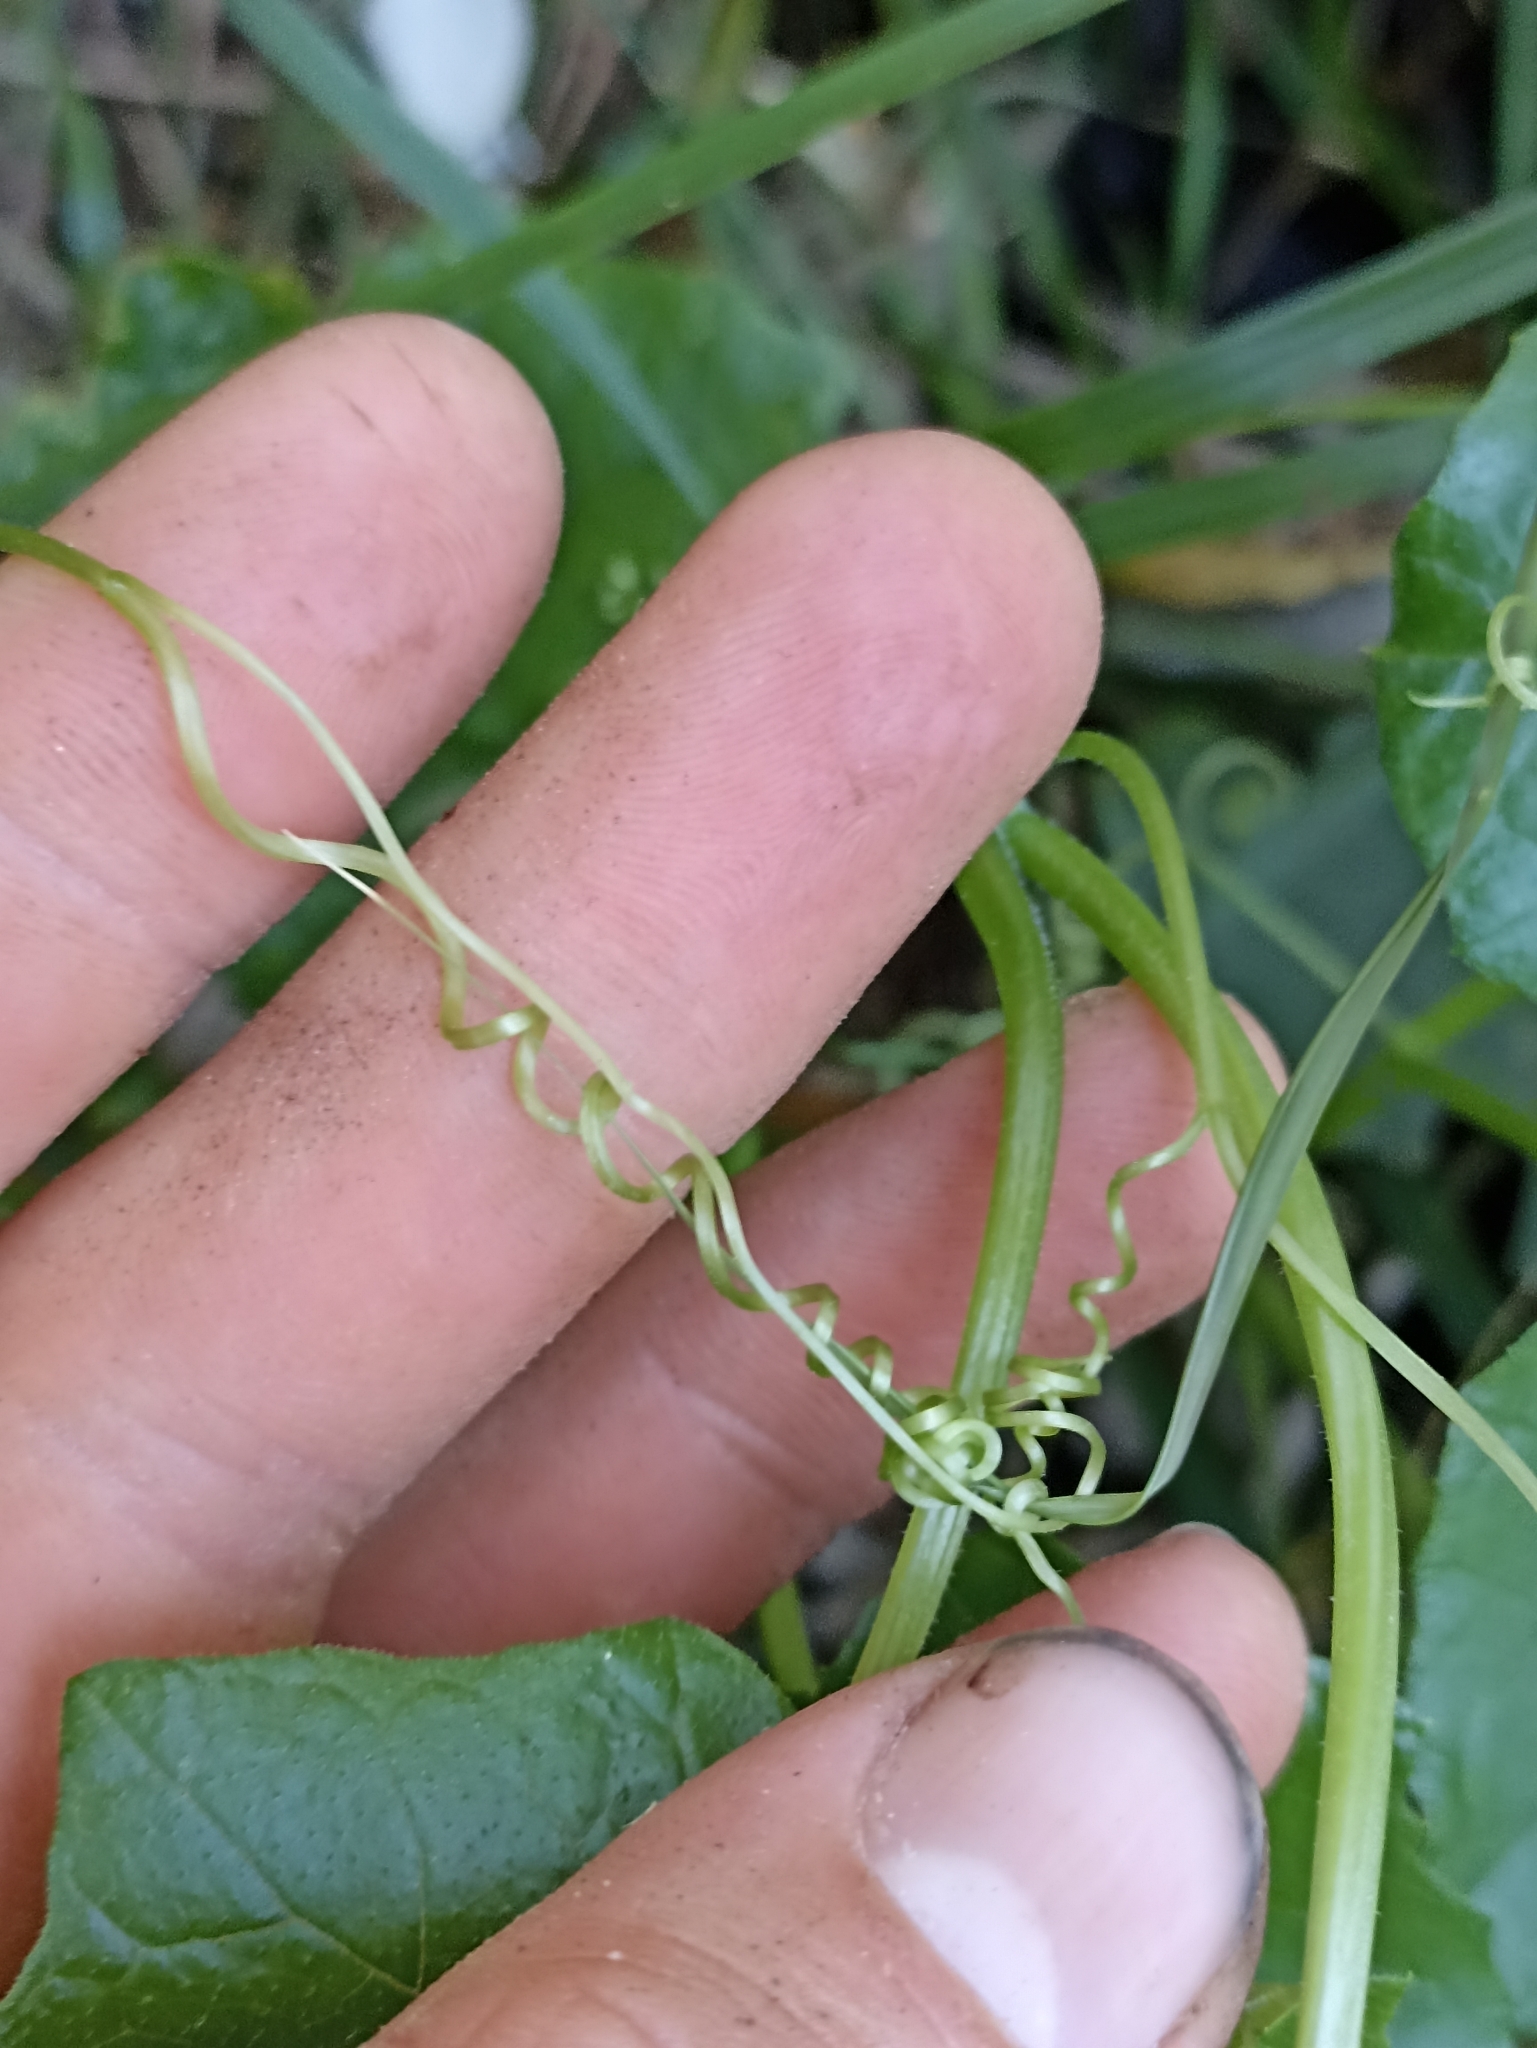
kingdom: Plantae
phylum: Tracheophyta
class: Magnoliopsida
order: Cucurbitales
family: Cucurbitaceae
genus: Sicyos
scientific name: Sicyos australis
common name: Angle-cucumber
